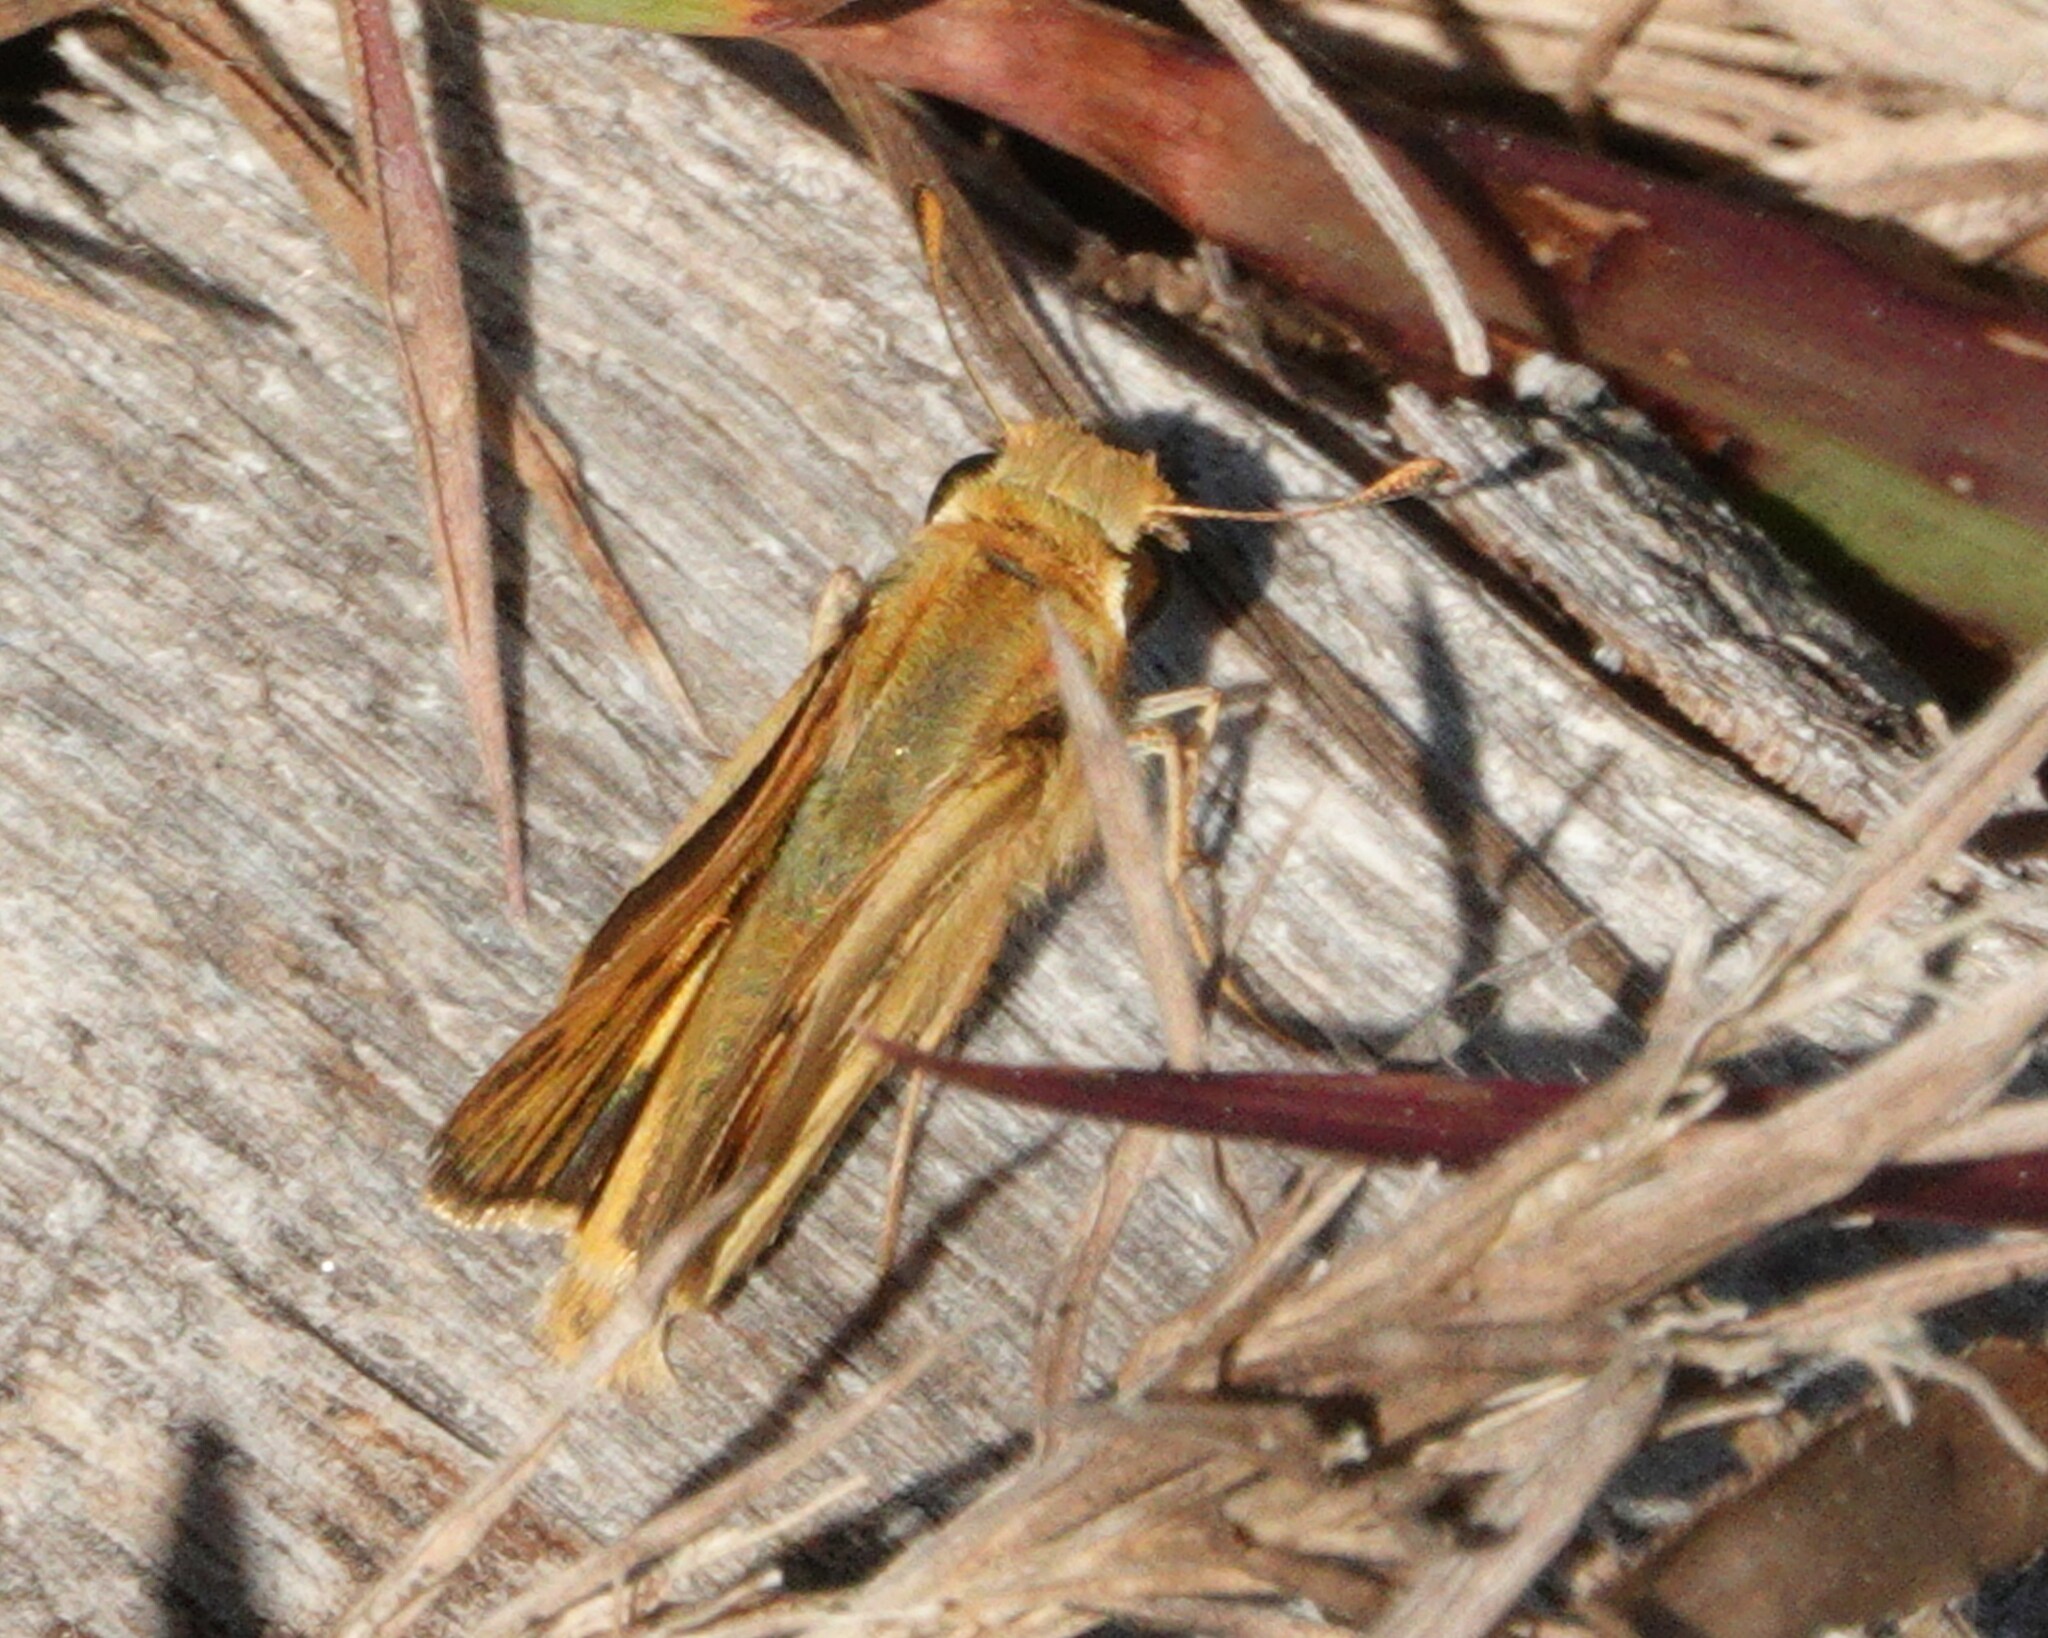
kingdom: Animalia
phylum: Arthropoda
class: Insecta
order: Lepidoptera
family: Hesperiidae
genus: Hylephila
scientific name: Hylephila phyleus
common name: Fiery skipper
